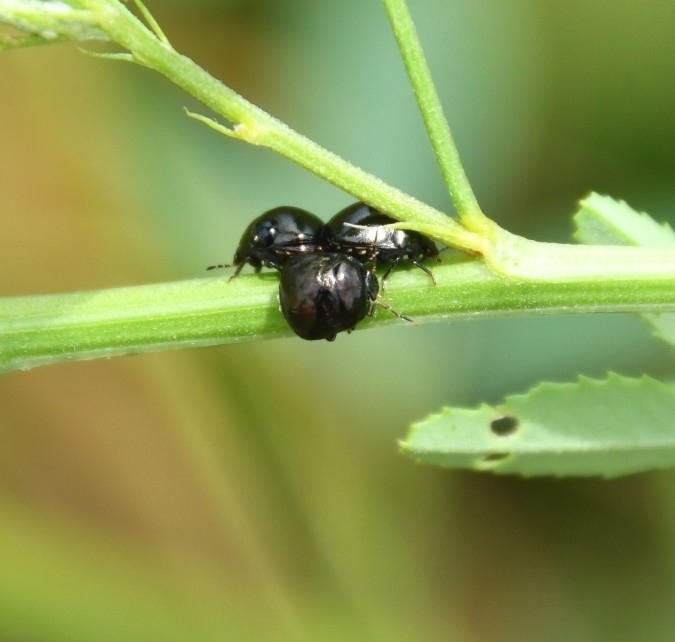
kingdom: Animalia
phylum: Arthropoda
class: Insecta
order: Hemiptera
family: Plataspidae
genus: Coptosoma
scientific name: Coptosoma scutellatum
